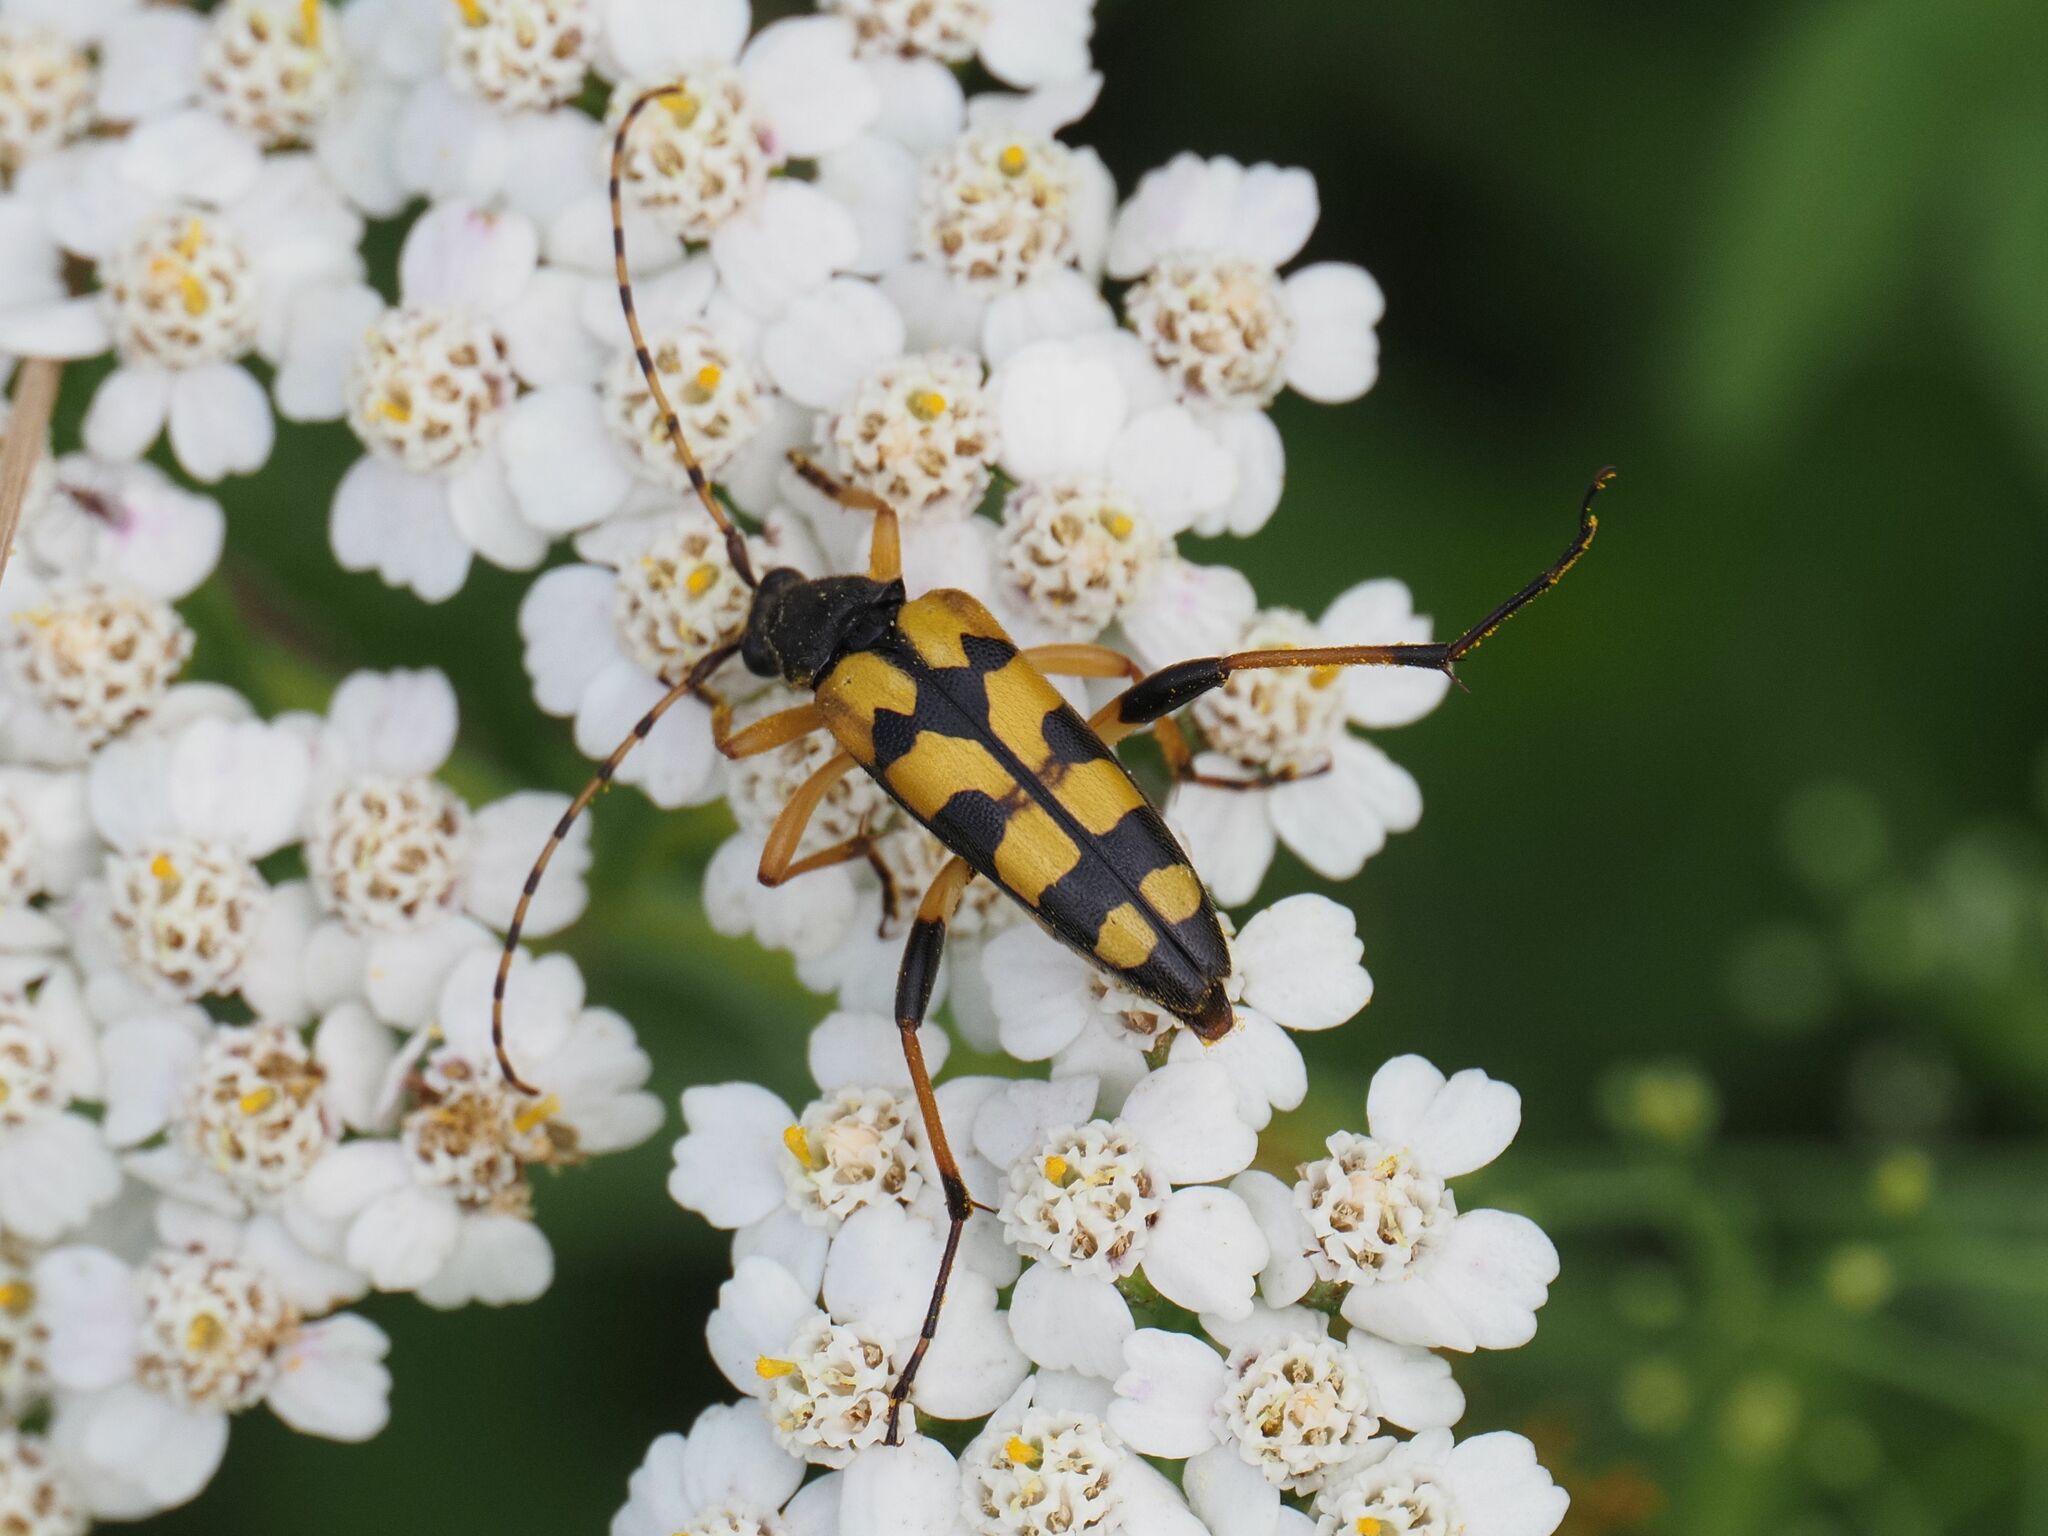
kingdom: Animalia
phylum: Arthropoda
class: Insecta
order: Coleoptera
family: Cerambycidae
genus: Rutpela
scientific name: Rutpela maculata
